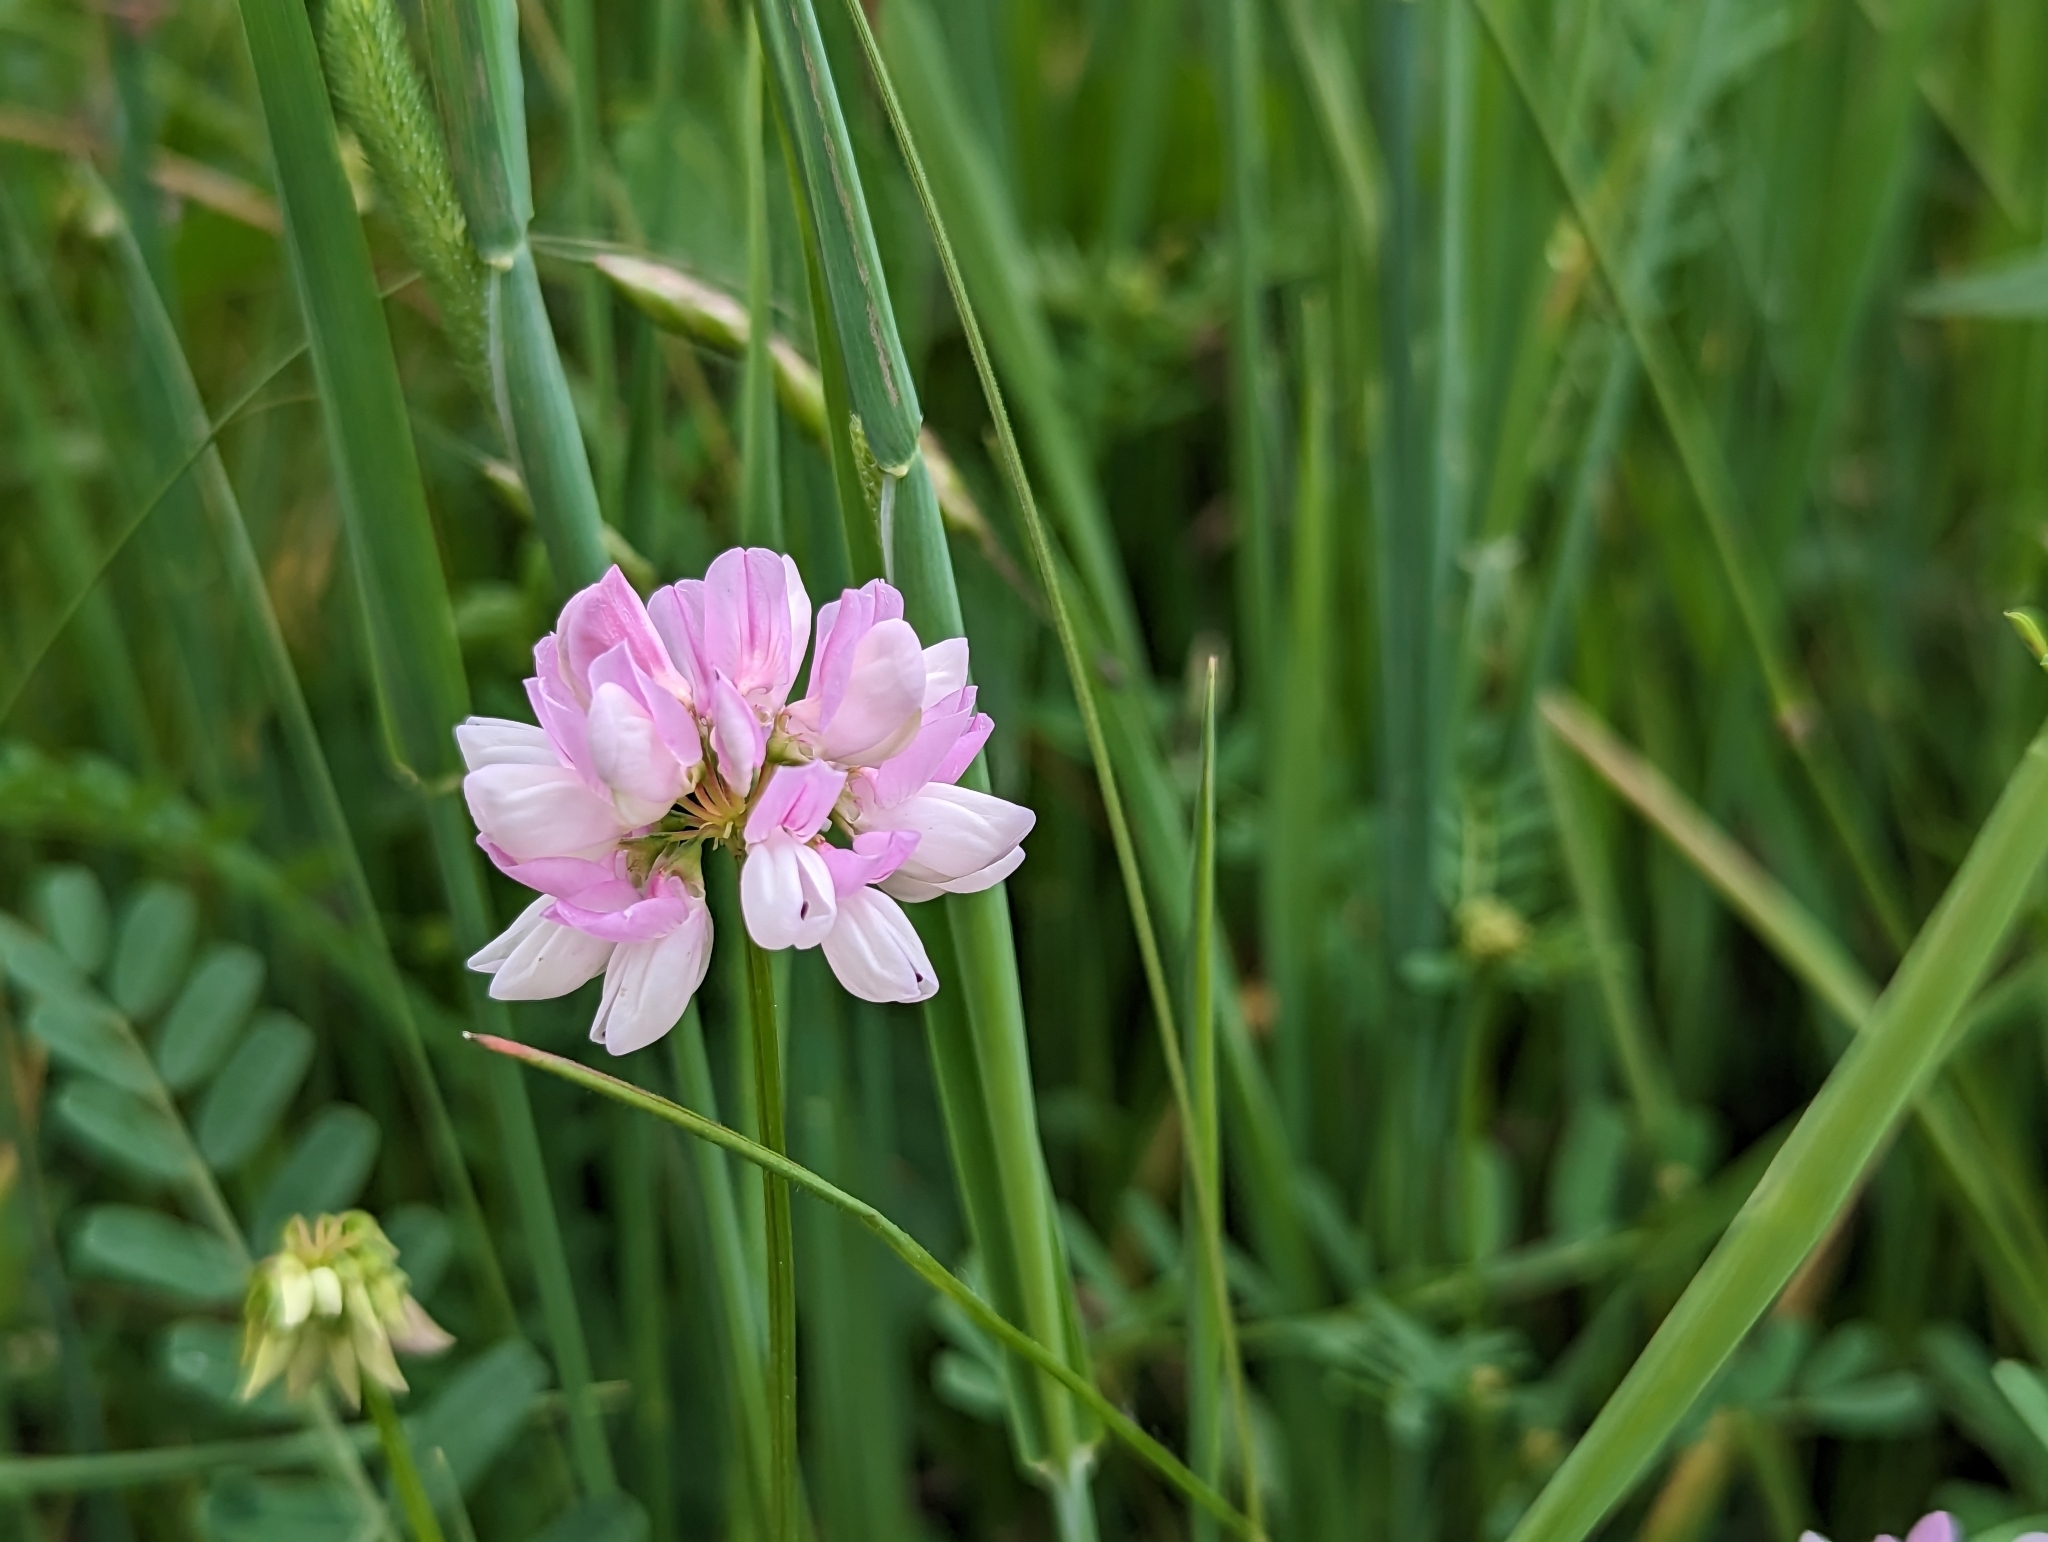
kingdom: Plantae
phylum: Tracheophyta
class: Magnoliopsida
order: Fabales
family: Fabaceae
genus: Coronilla
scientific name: Coronilla varia
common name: Crownvetch
